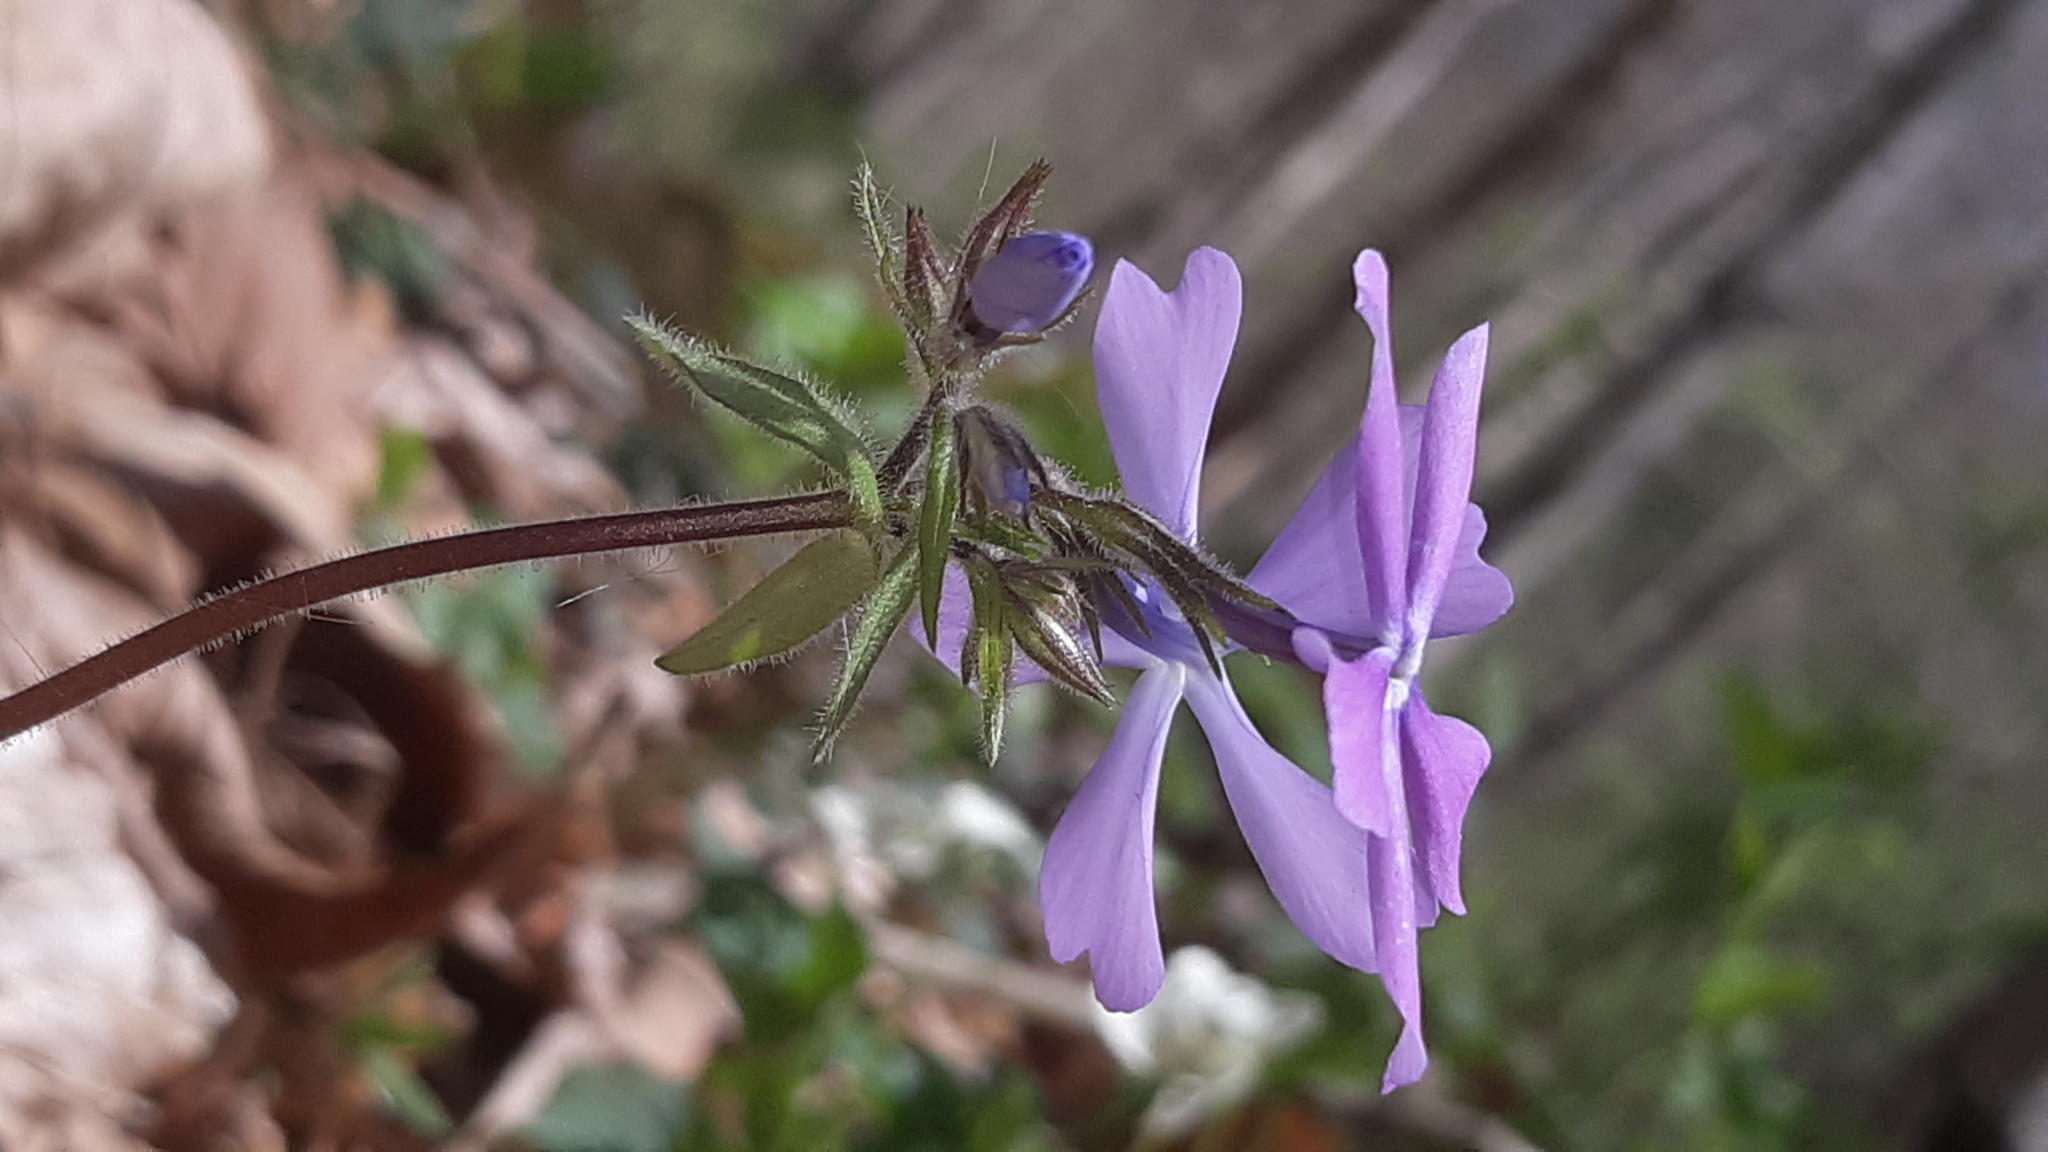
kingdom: Plantae
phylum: Tracheophyta
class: Magnoliopsida
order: Ericales
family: Polemoniaceae
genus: Phlox
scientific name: Phlox divaricata
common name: Blue phlox
